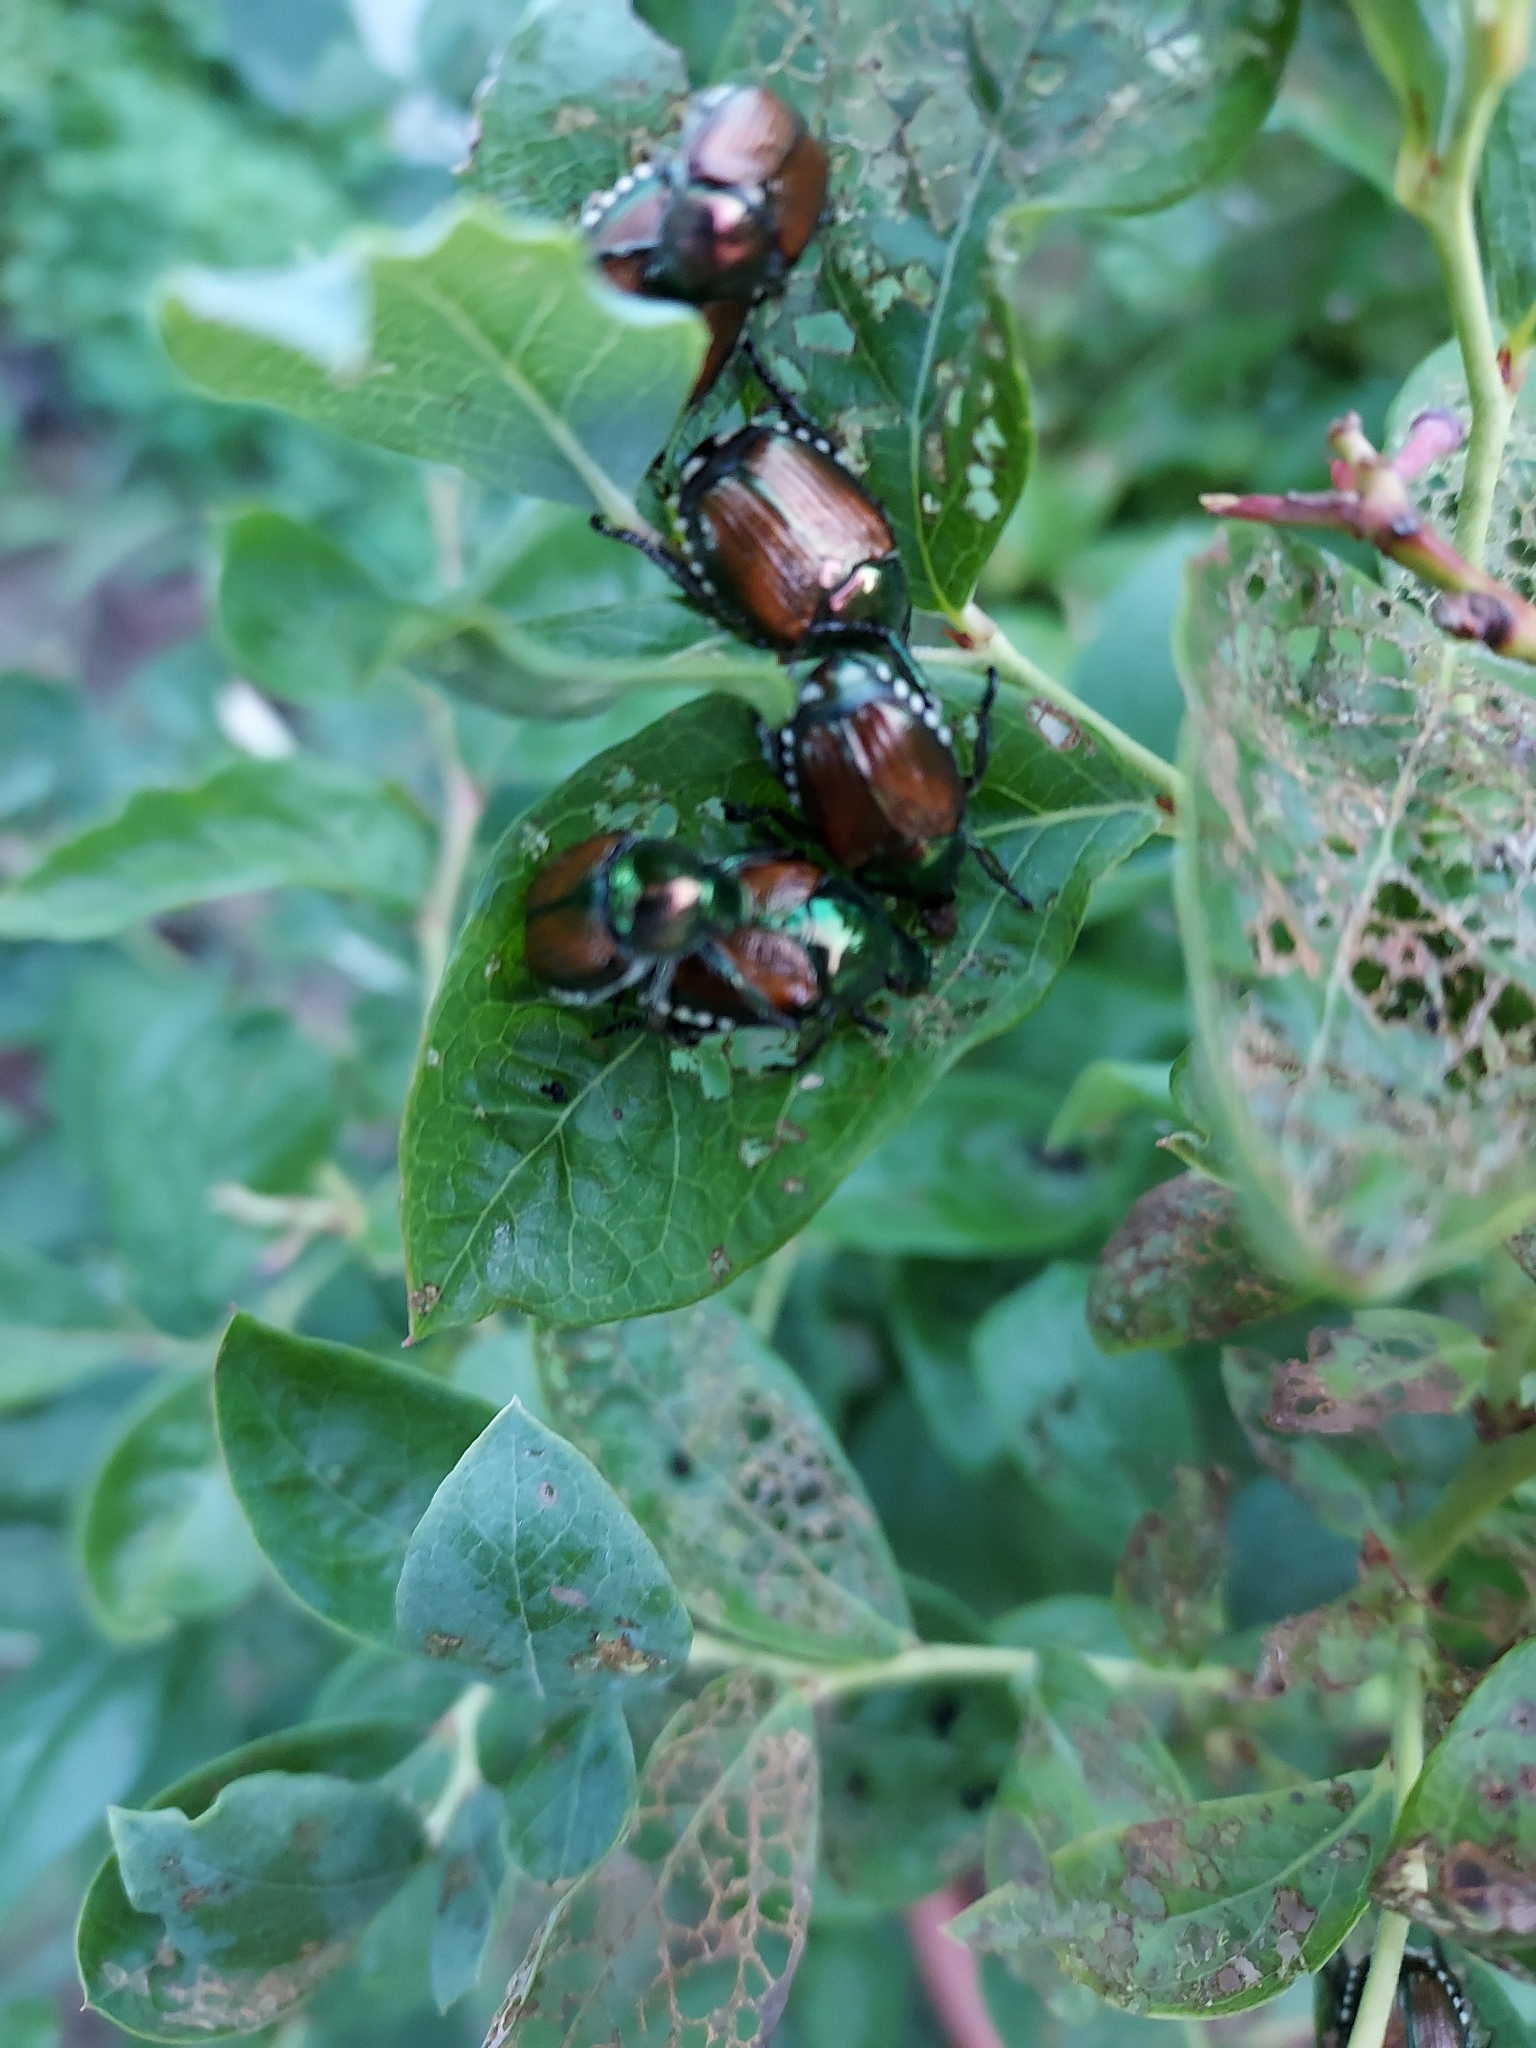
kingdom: Animalia
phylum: Arthropoda
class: Insecta
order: Coleoptera
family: Scarabaeidae
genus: Popillia
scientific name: Popillia japonica
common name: Japanese beetle
